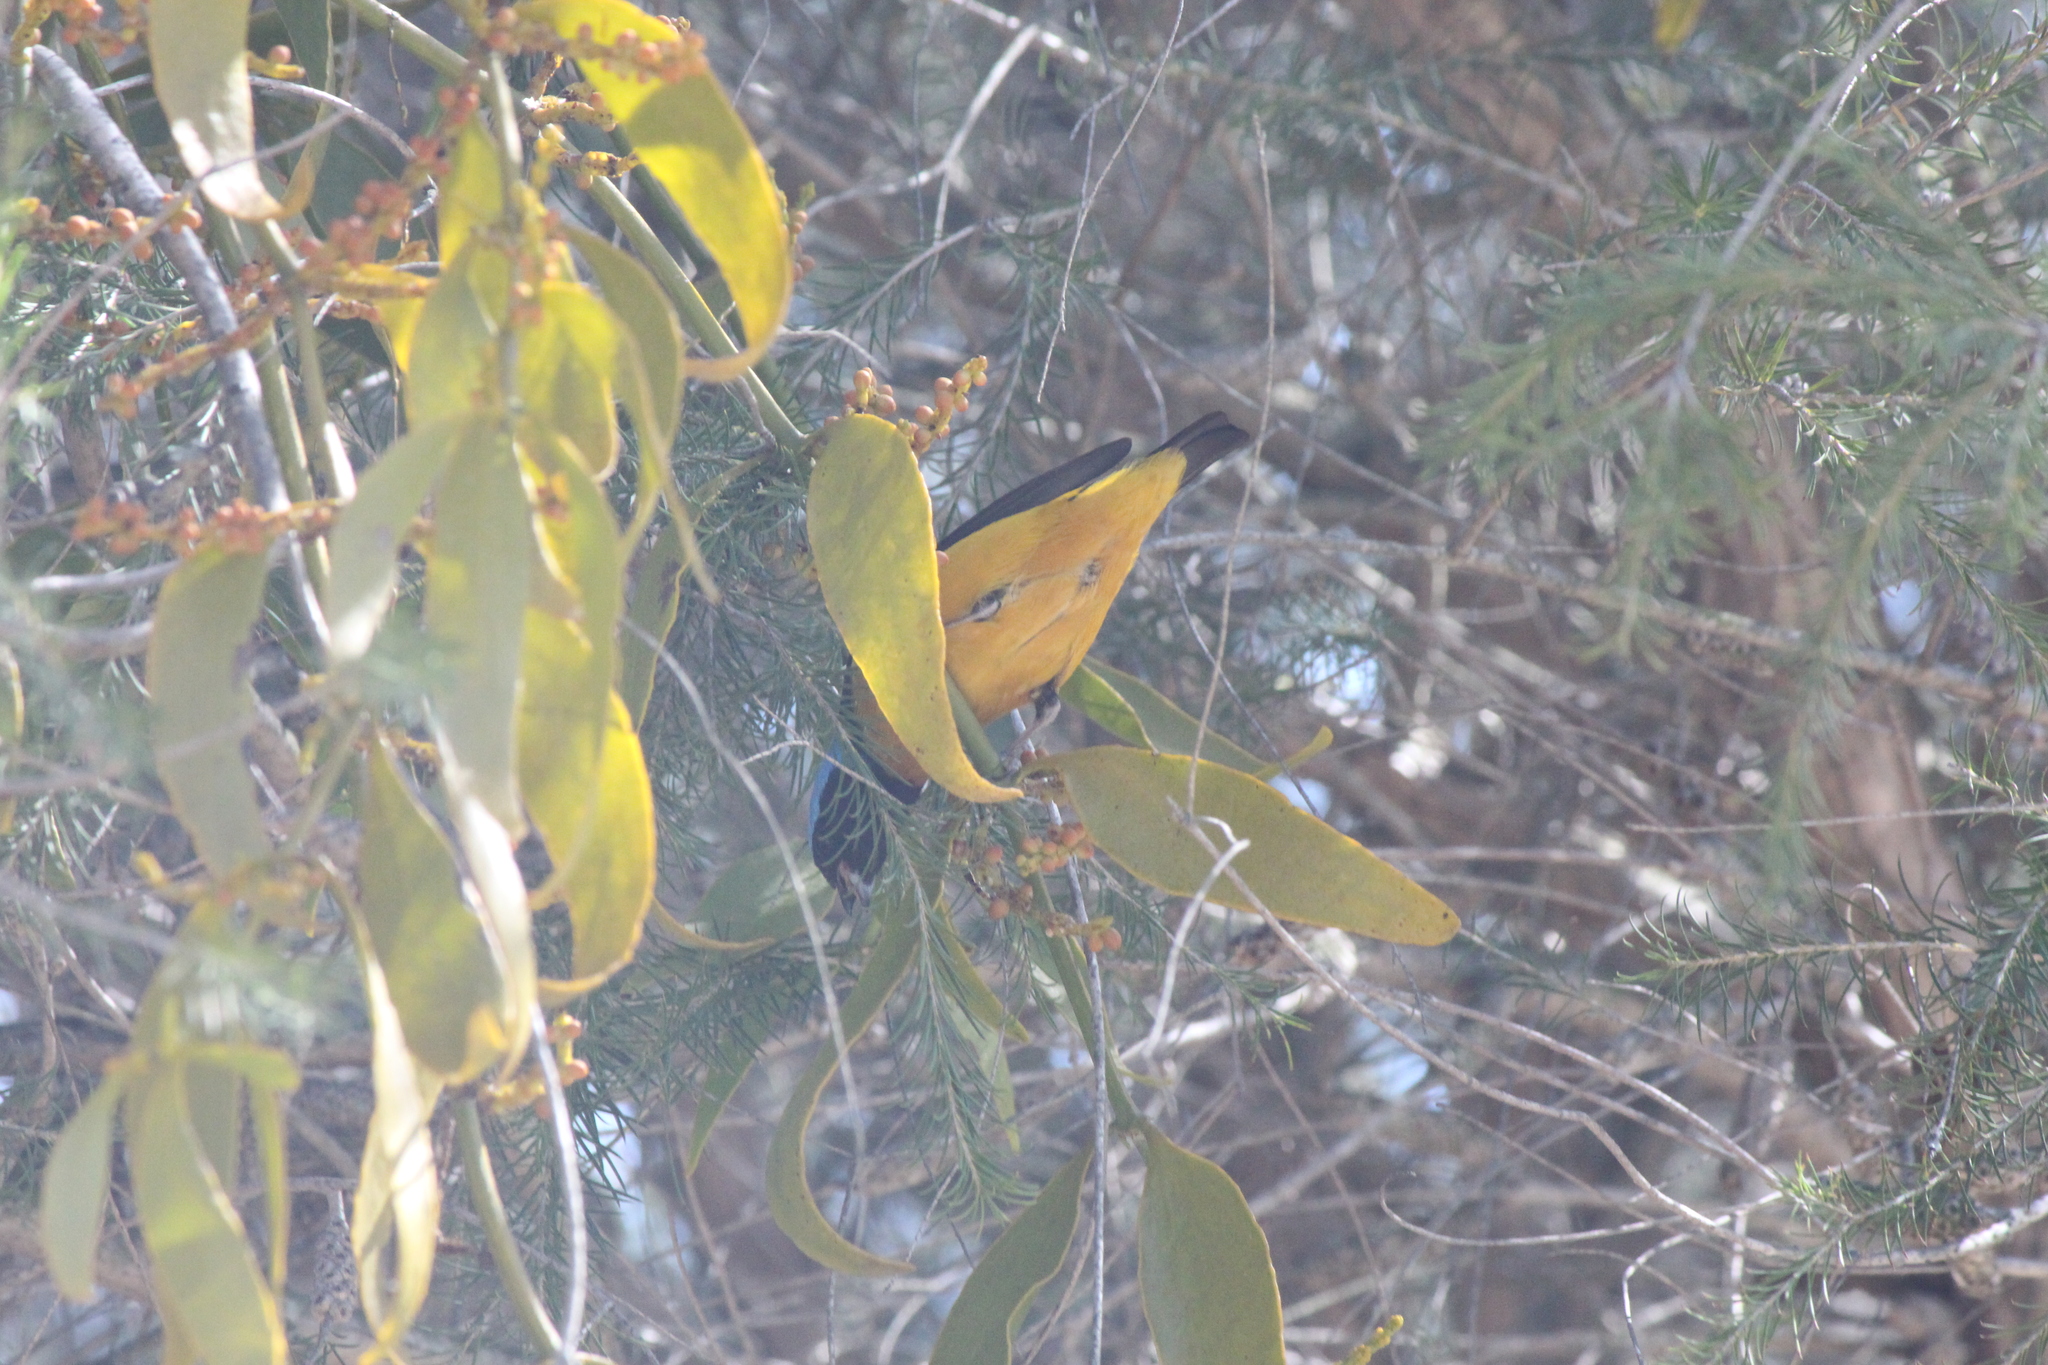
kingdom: Animalia
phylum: Chordata
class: Aves
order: Passeriformes
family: Fringillidae
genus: Euphonia
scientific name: Euphonia cyanocephala
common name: Golden-rumped euphonia
